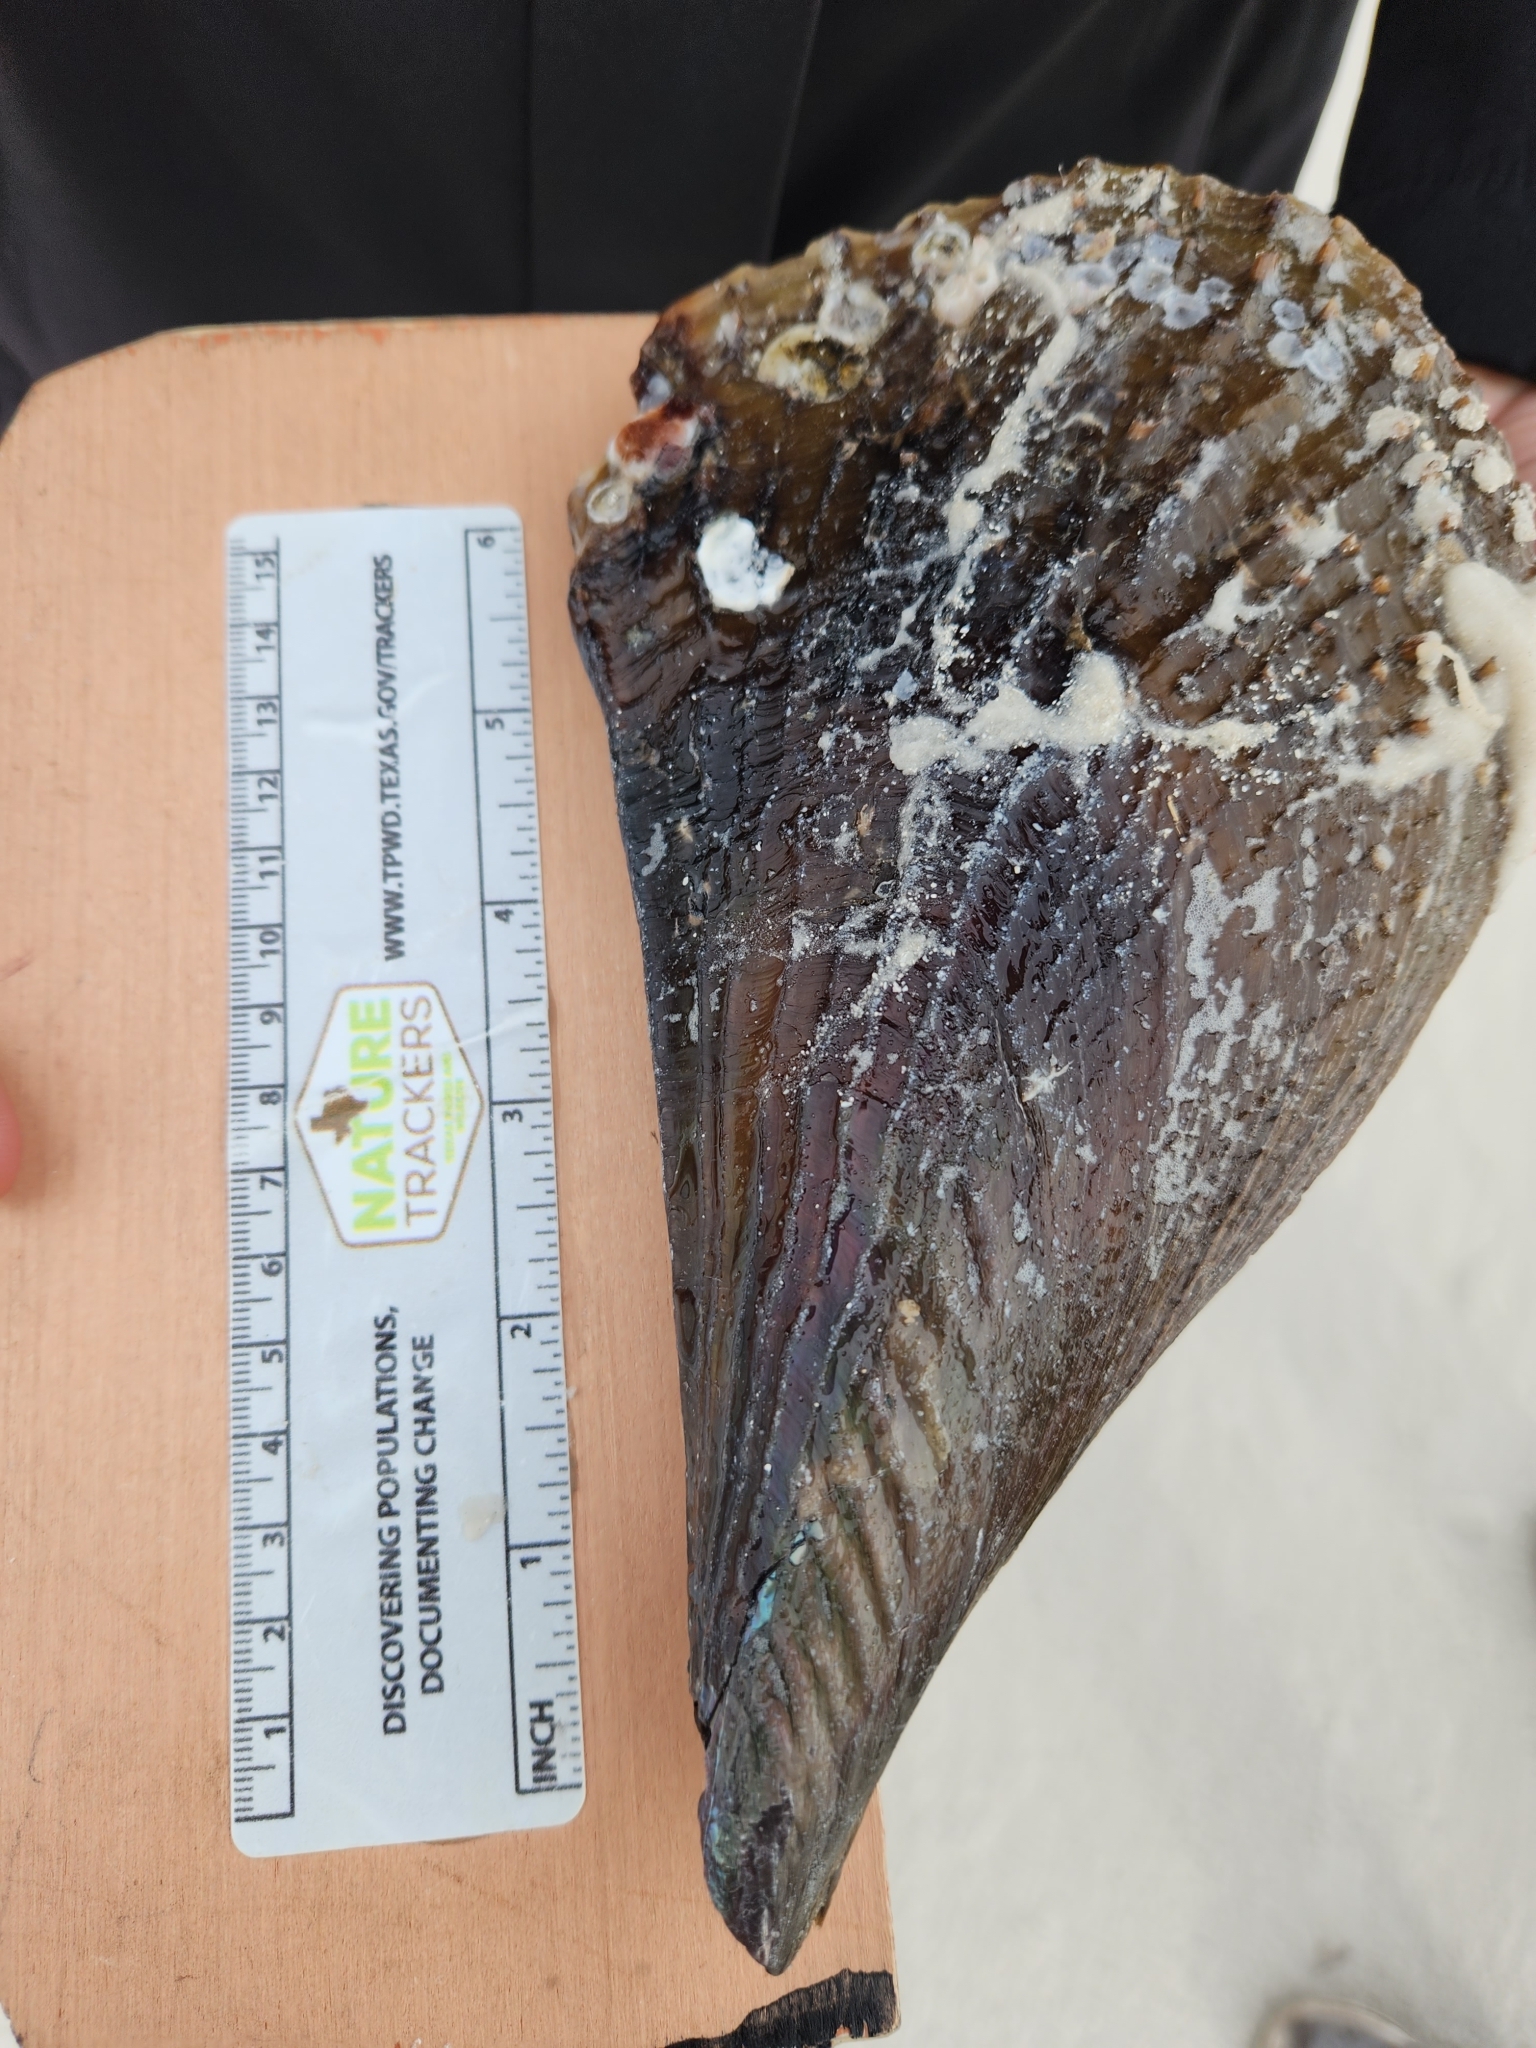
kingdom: Animalia
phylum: Mollusca
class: Bivalvia
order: Ostreida
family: Pinnidae
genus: Atrina
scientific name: Atrina rigida
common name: Stiff penshell
